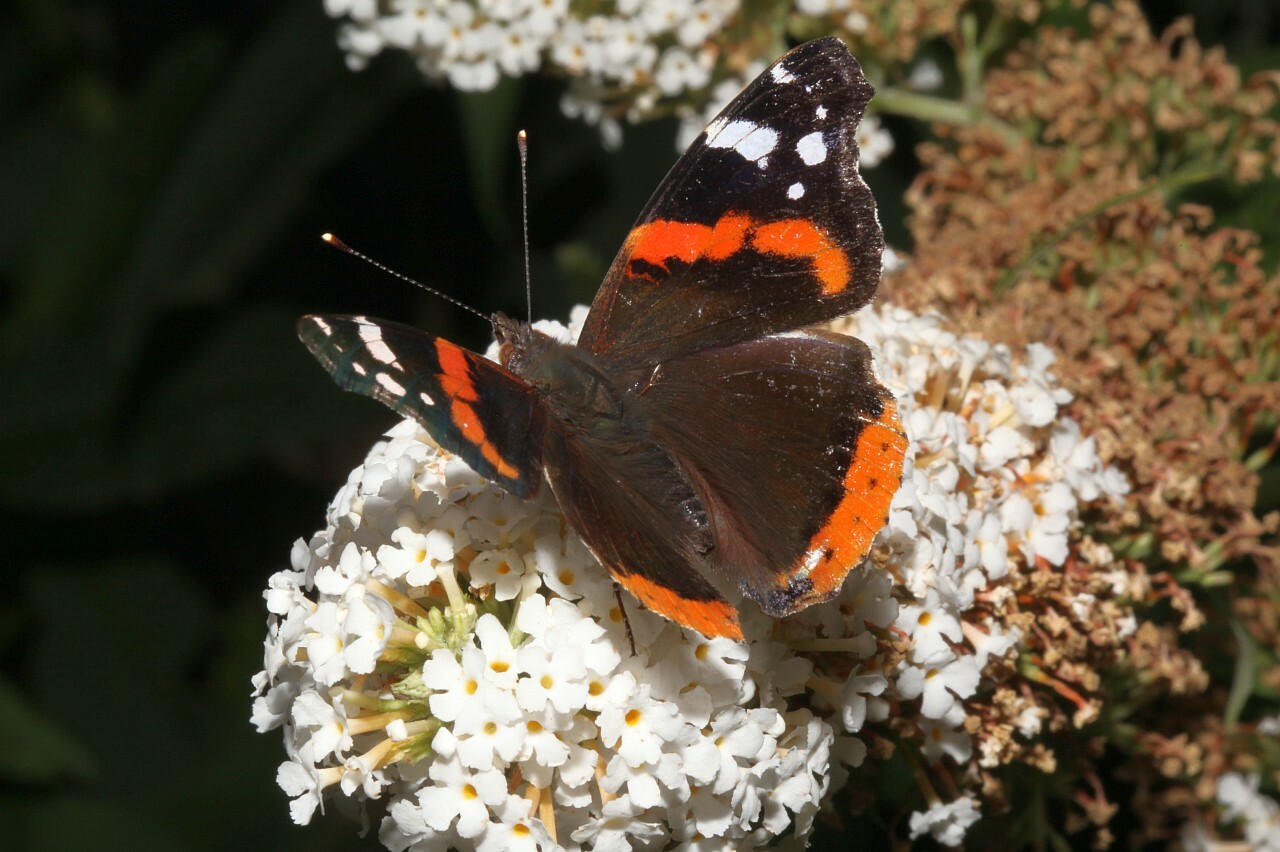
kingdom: Animalia
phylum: Arthropoda
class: Insecta
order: Lepidoptera
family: Nymphalidae
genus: Vanessa
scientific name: Vanessa atalanta
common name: Red admiral
